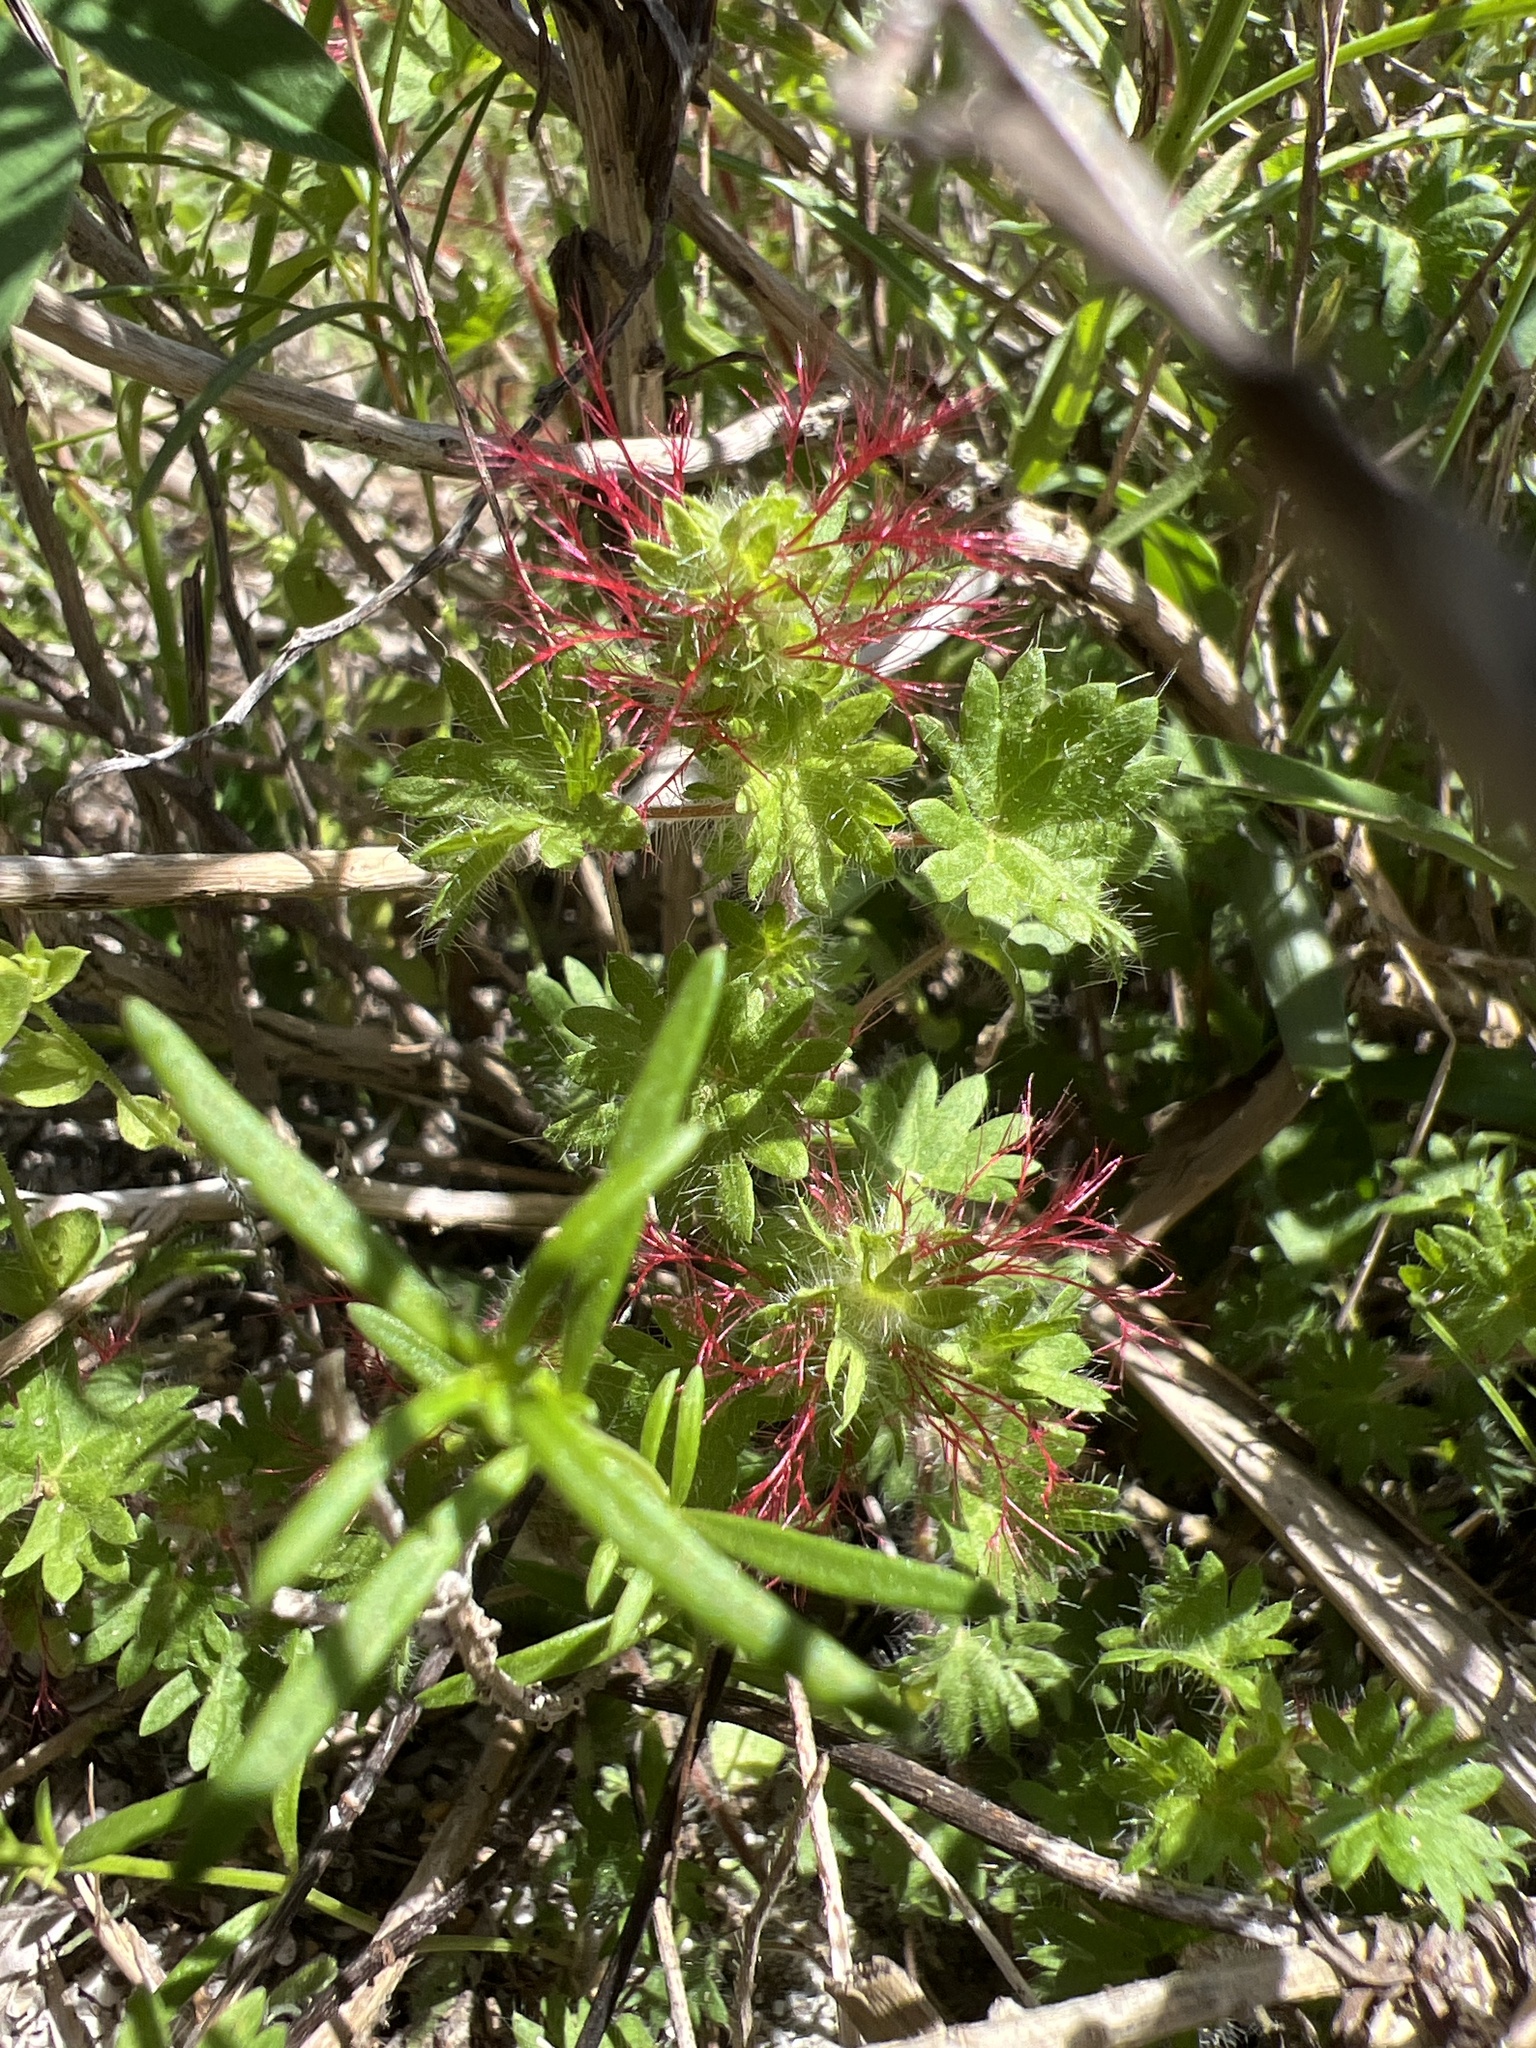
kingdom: Plantae
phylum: Tracheophyta
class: Magnoliopsida
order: Malpighiales
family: Euphorbiaceae
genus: Acalypha
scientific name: Acalypha radians
